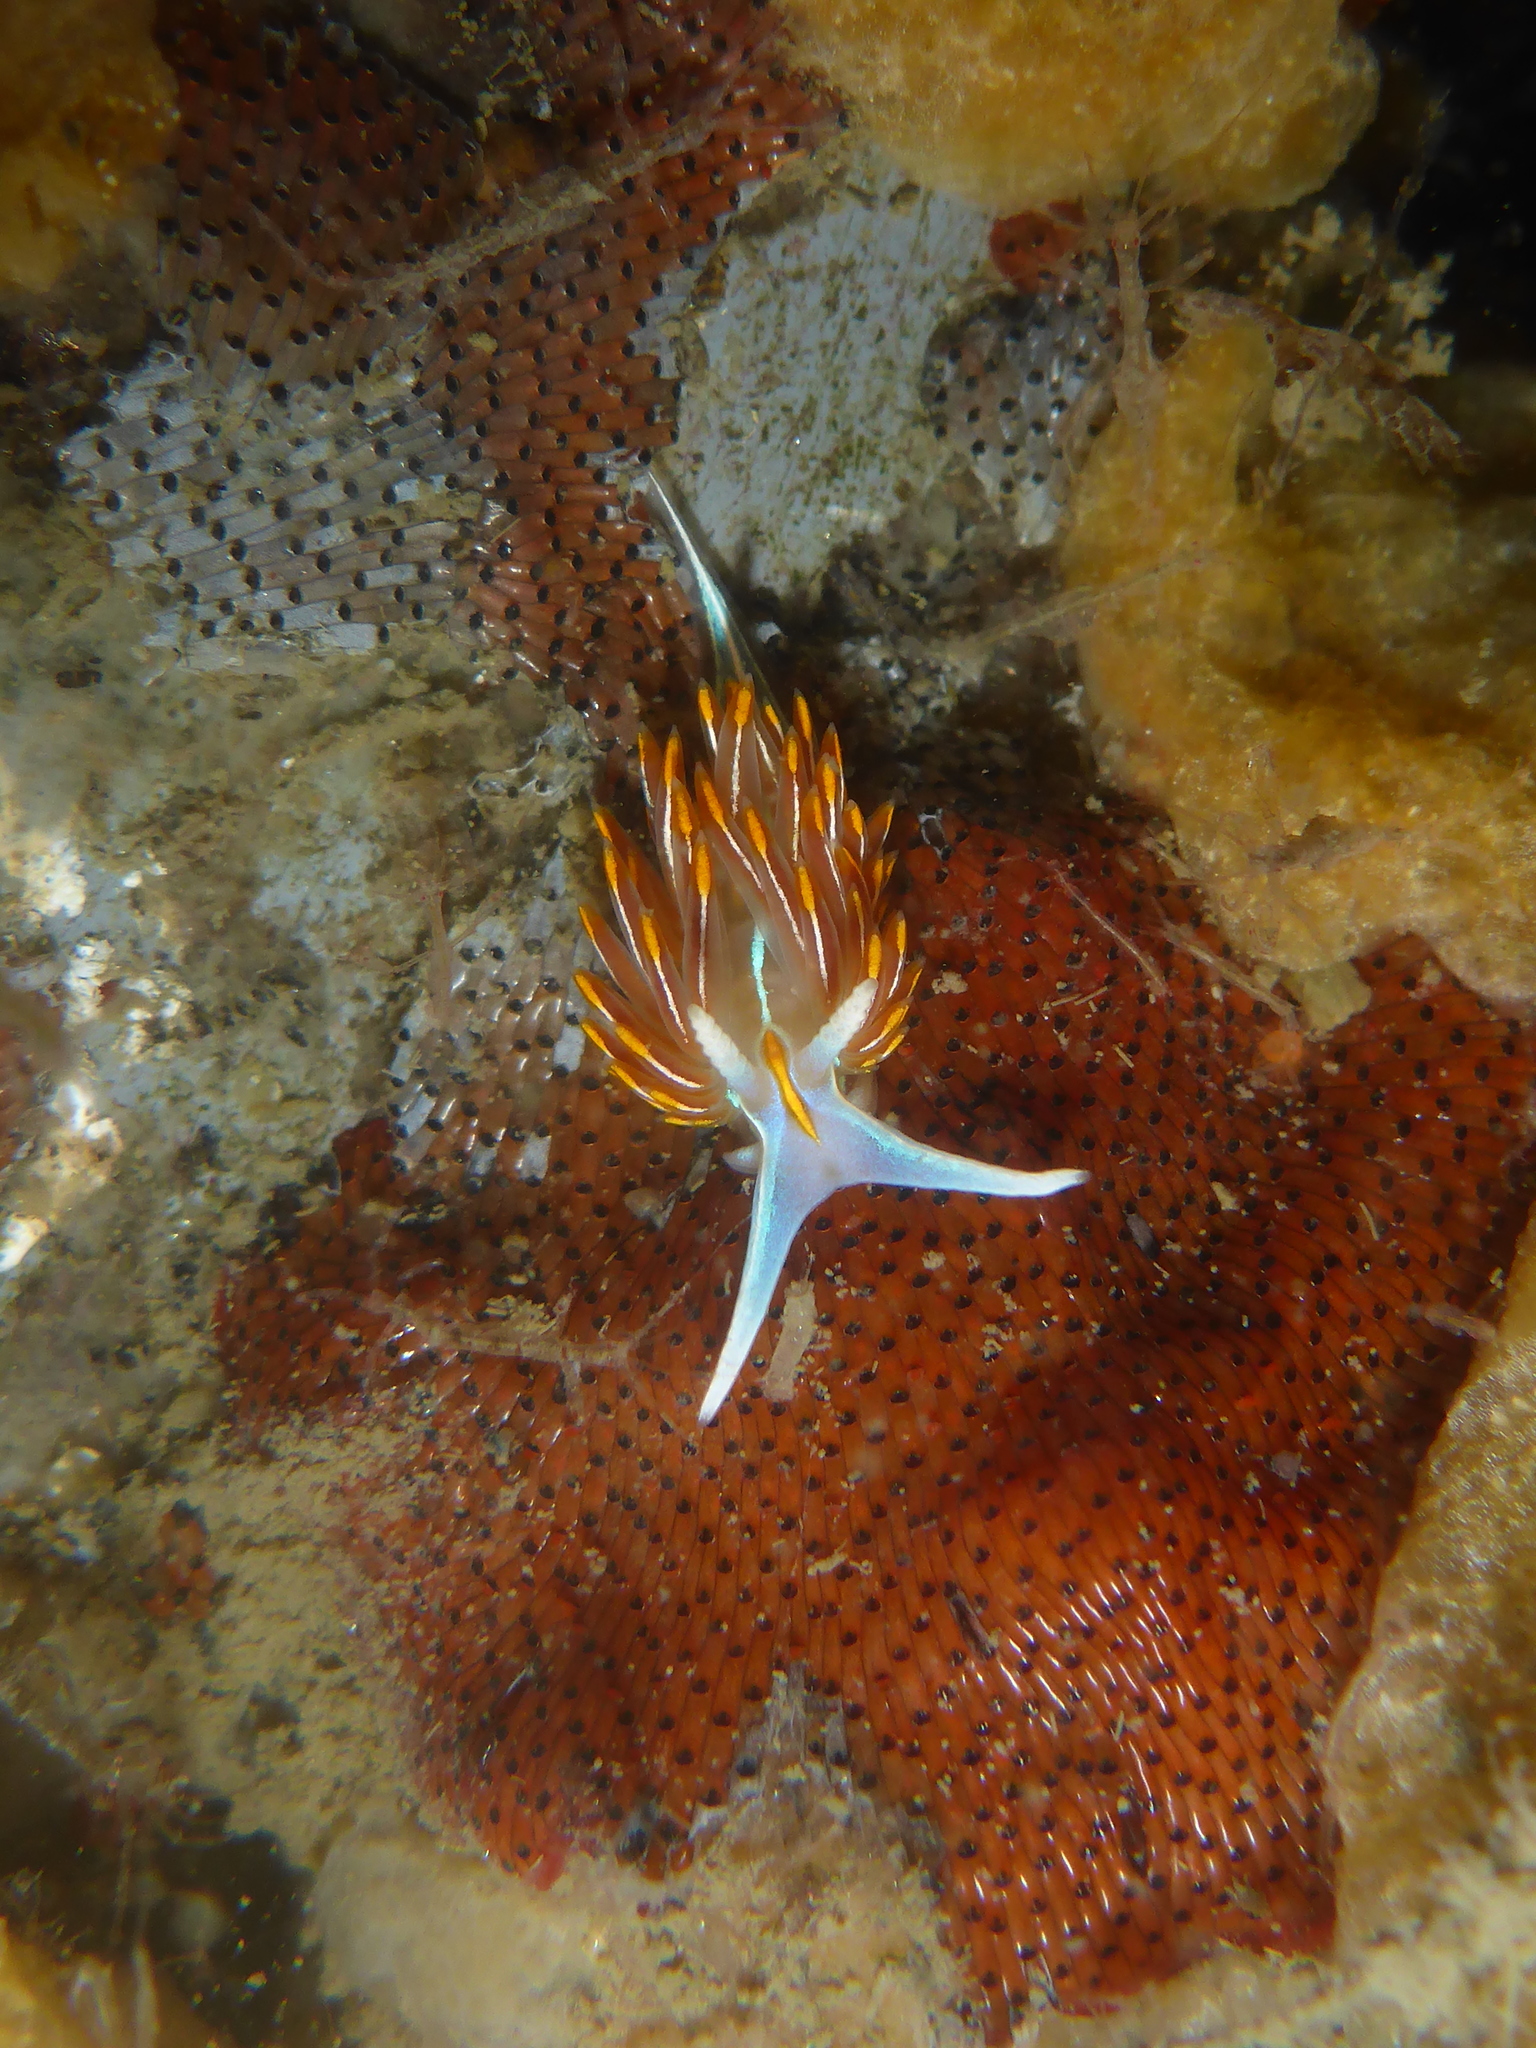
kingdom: Animalia
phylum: Mollusca
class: Gastropoda
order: Nudibranchia
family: Myrrhinidae
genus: Hermissenda
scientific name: Hermissenda crassicornis
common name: Hermissenda
